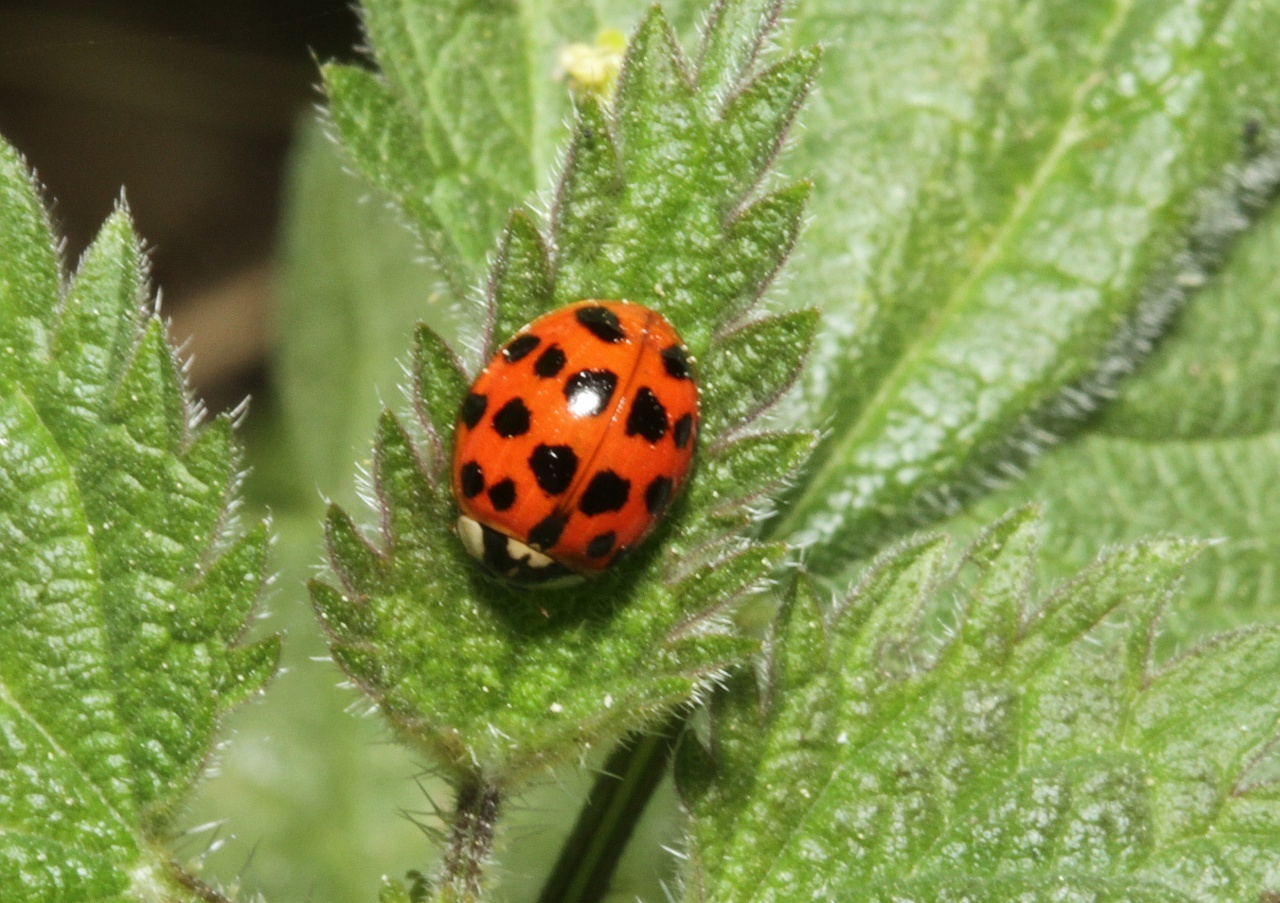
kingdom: Animalia
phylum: Arthropoda
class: Insecta
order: Coleoptera
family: Coccinellidae
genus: Harmonia
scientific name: Harmonia axyridis
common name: Harlequin ladybird
